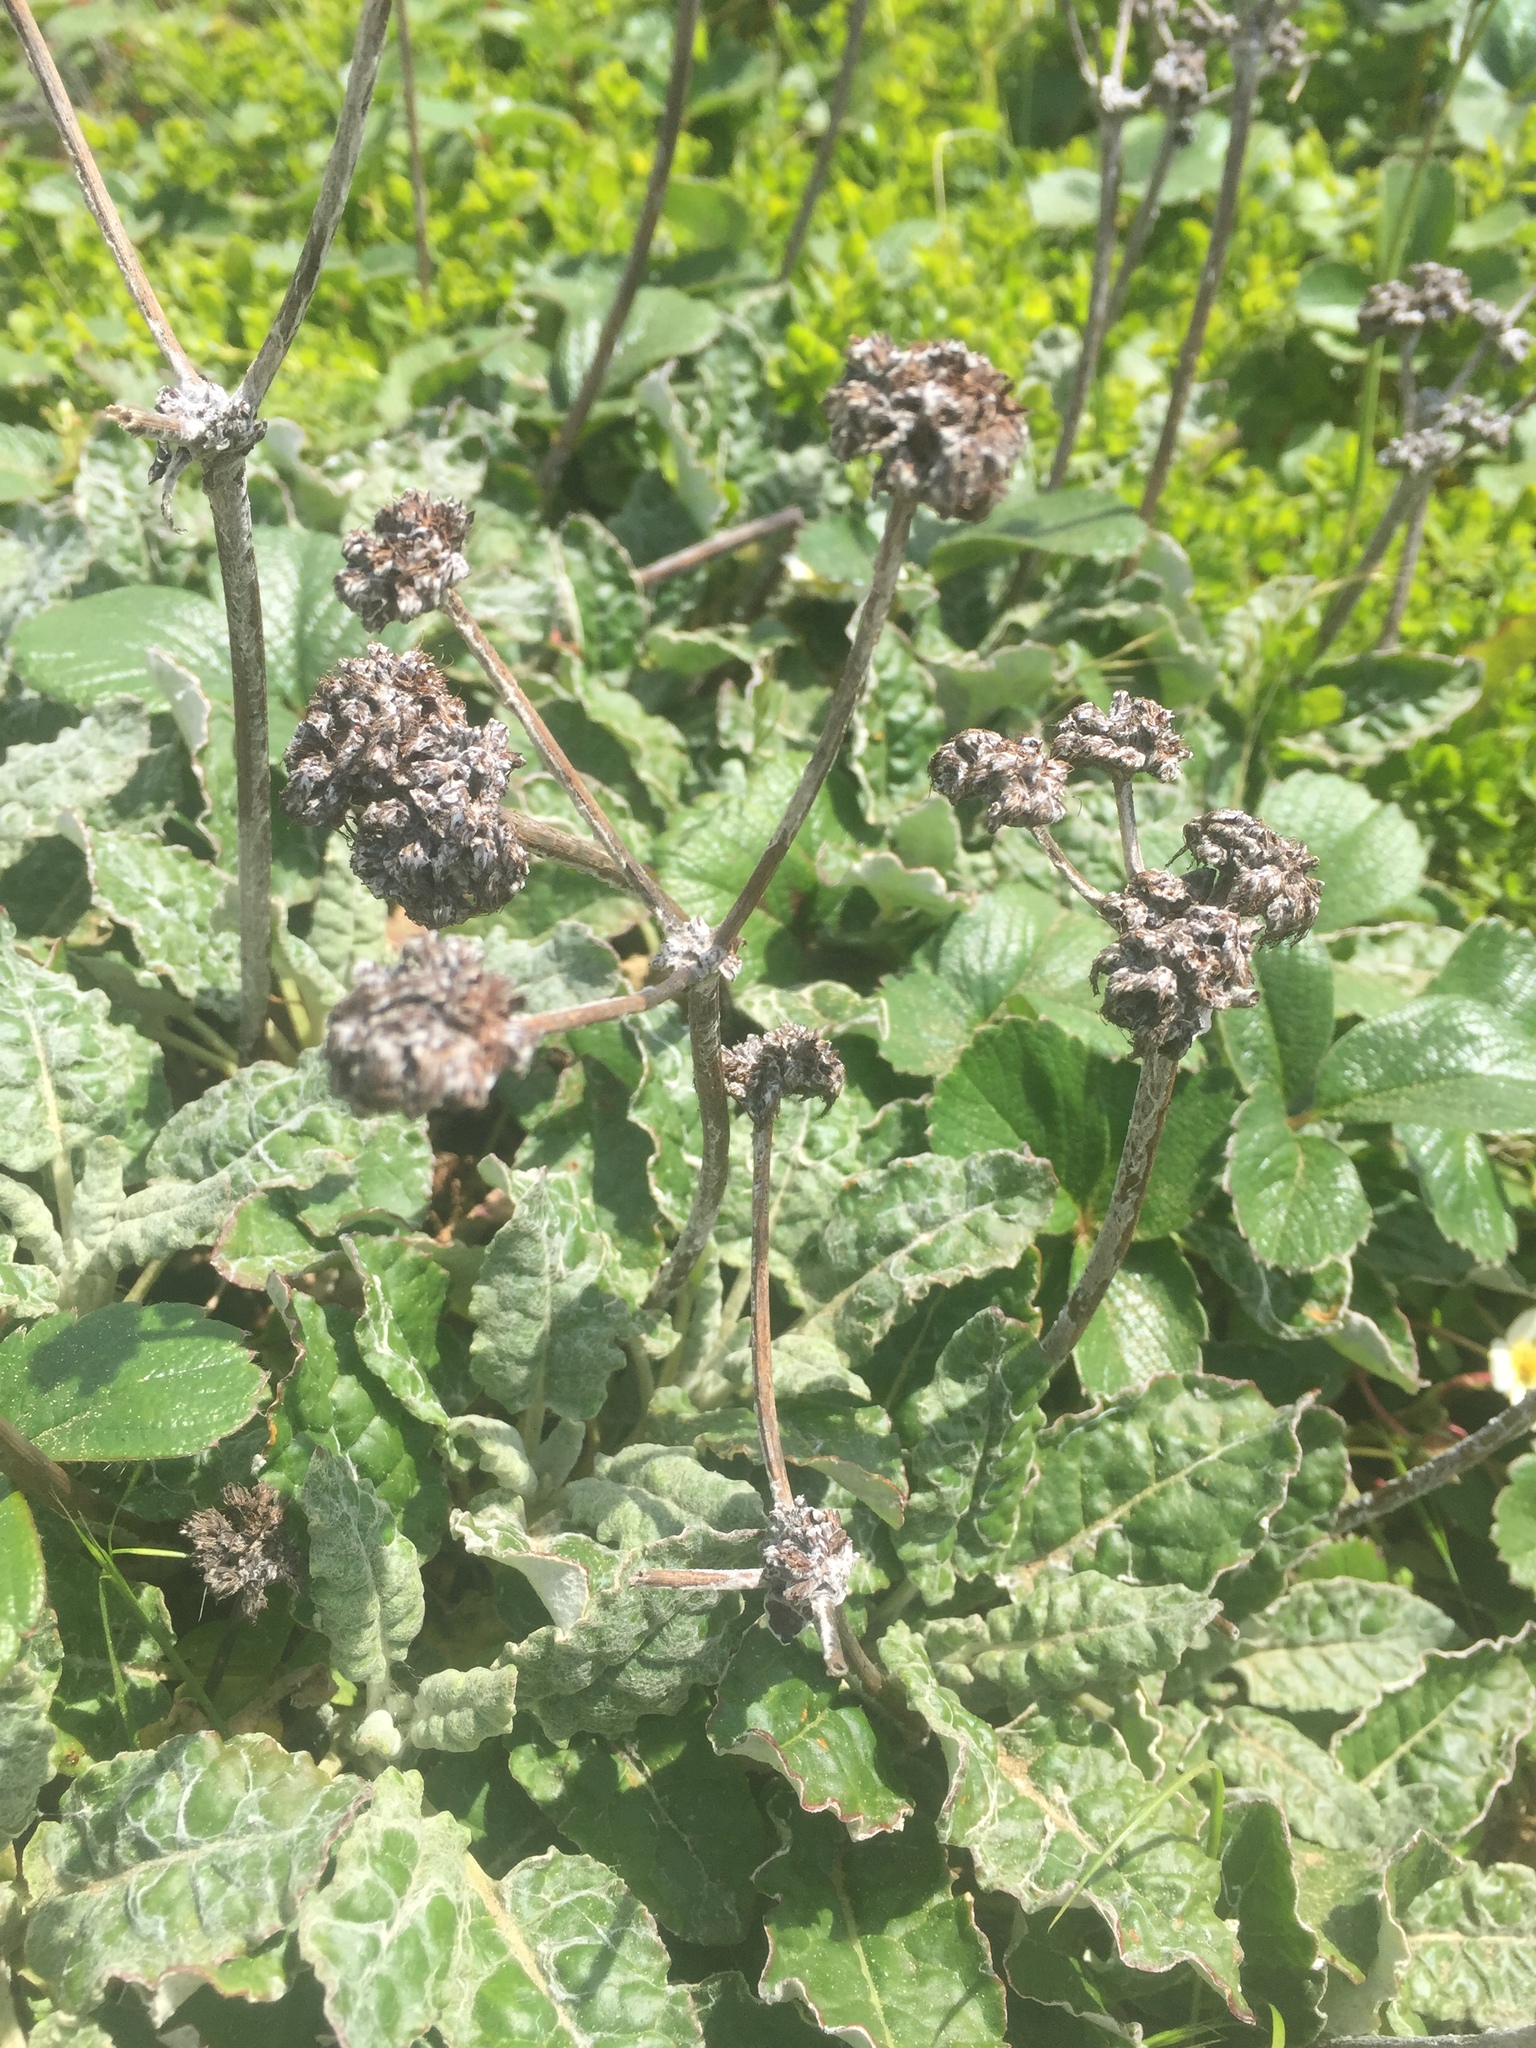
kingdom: Plantae
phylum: Tracheophyta
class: Magnoliopsida
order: Caryophyllales
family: Polygonaceae
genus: Eriogonum
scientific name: Eriogonum latifolium
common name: Seaside wild buckwheat
